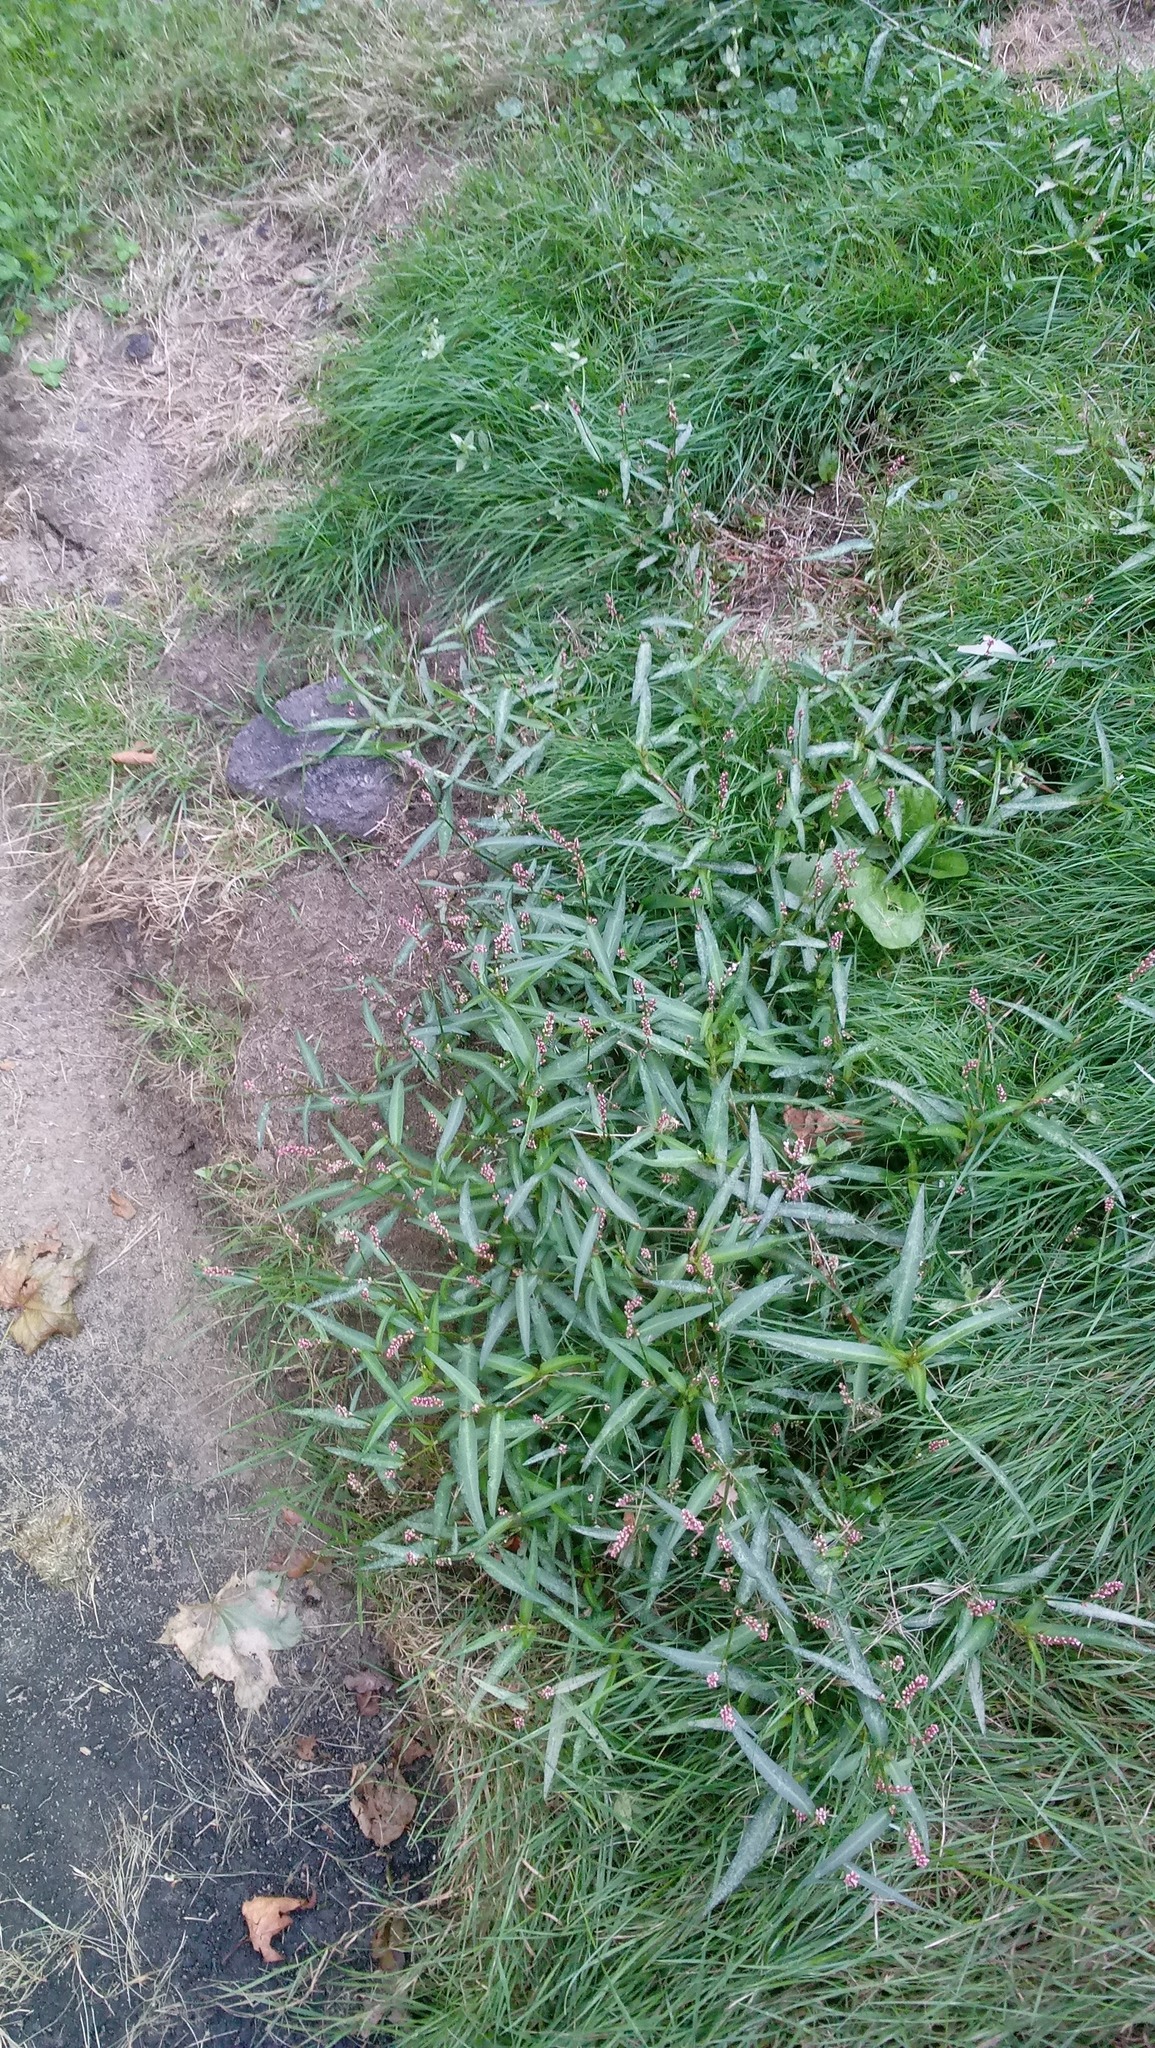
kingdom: Plantae
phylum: Tracheophyta
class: Magnoliopsida
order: Caryophyllales
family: Polygonaceae
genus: Persicaria
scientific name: Persicaria minor
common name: Small water-pepper
